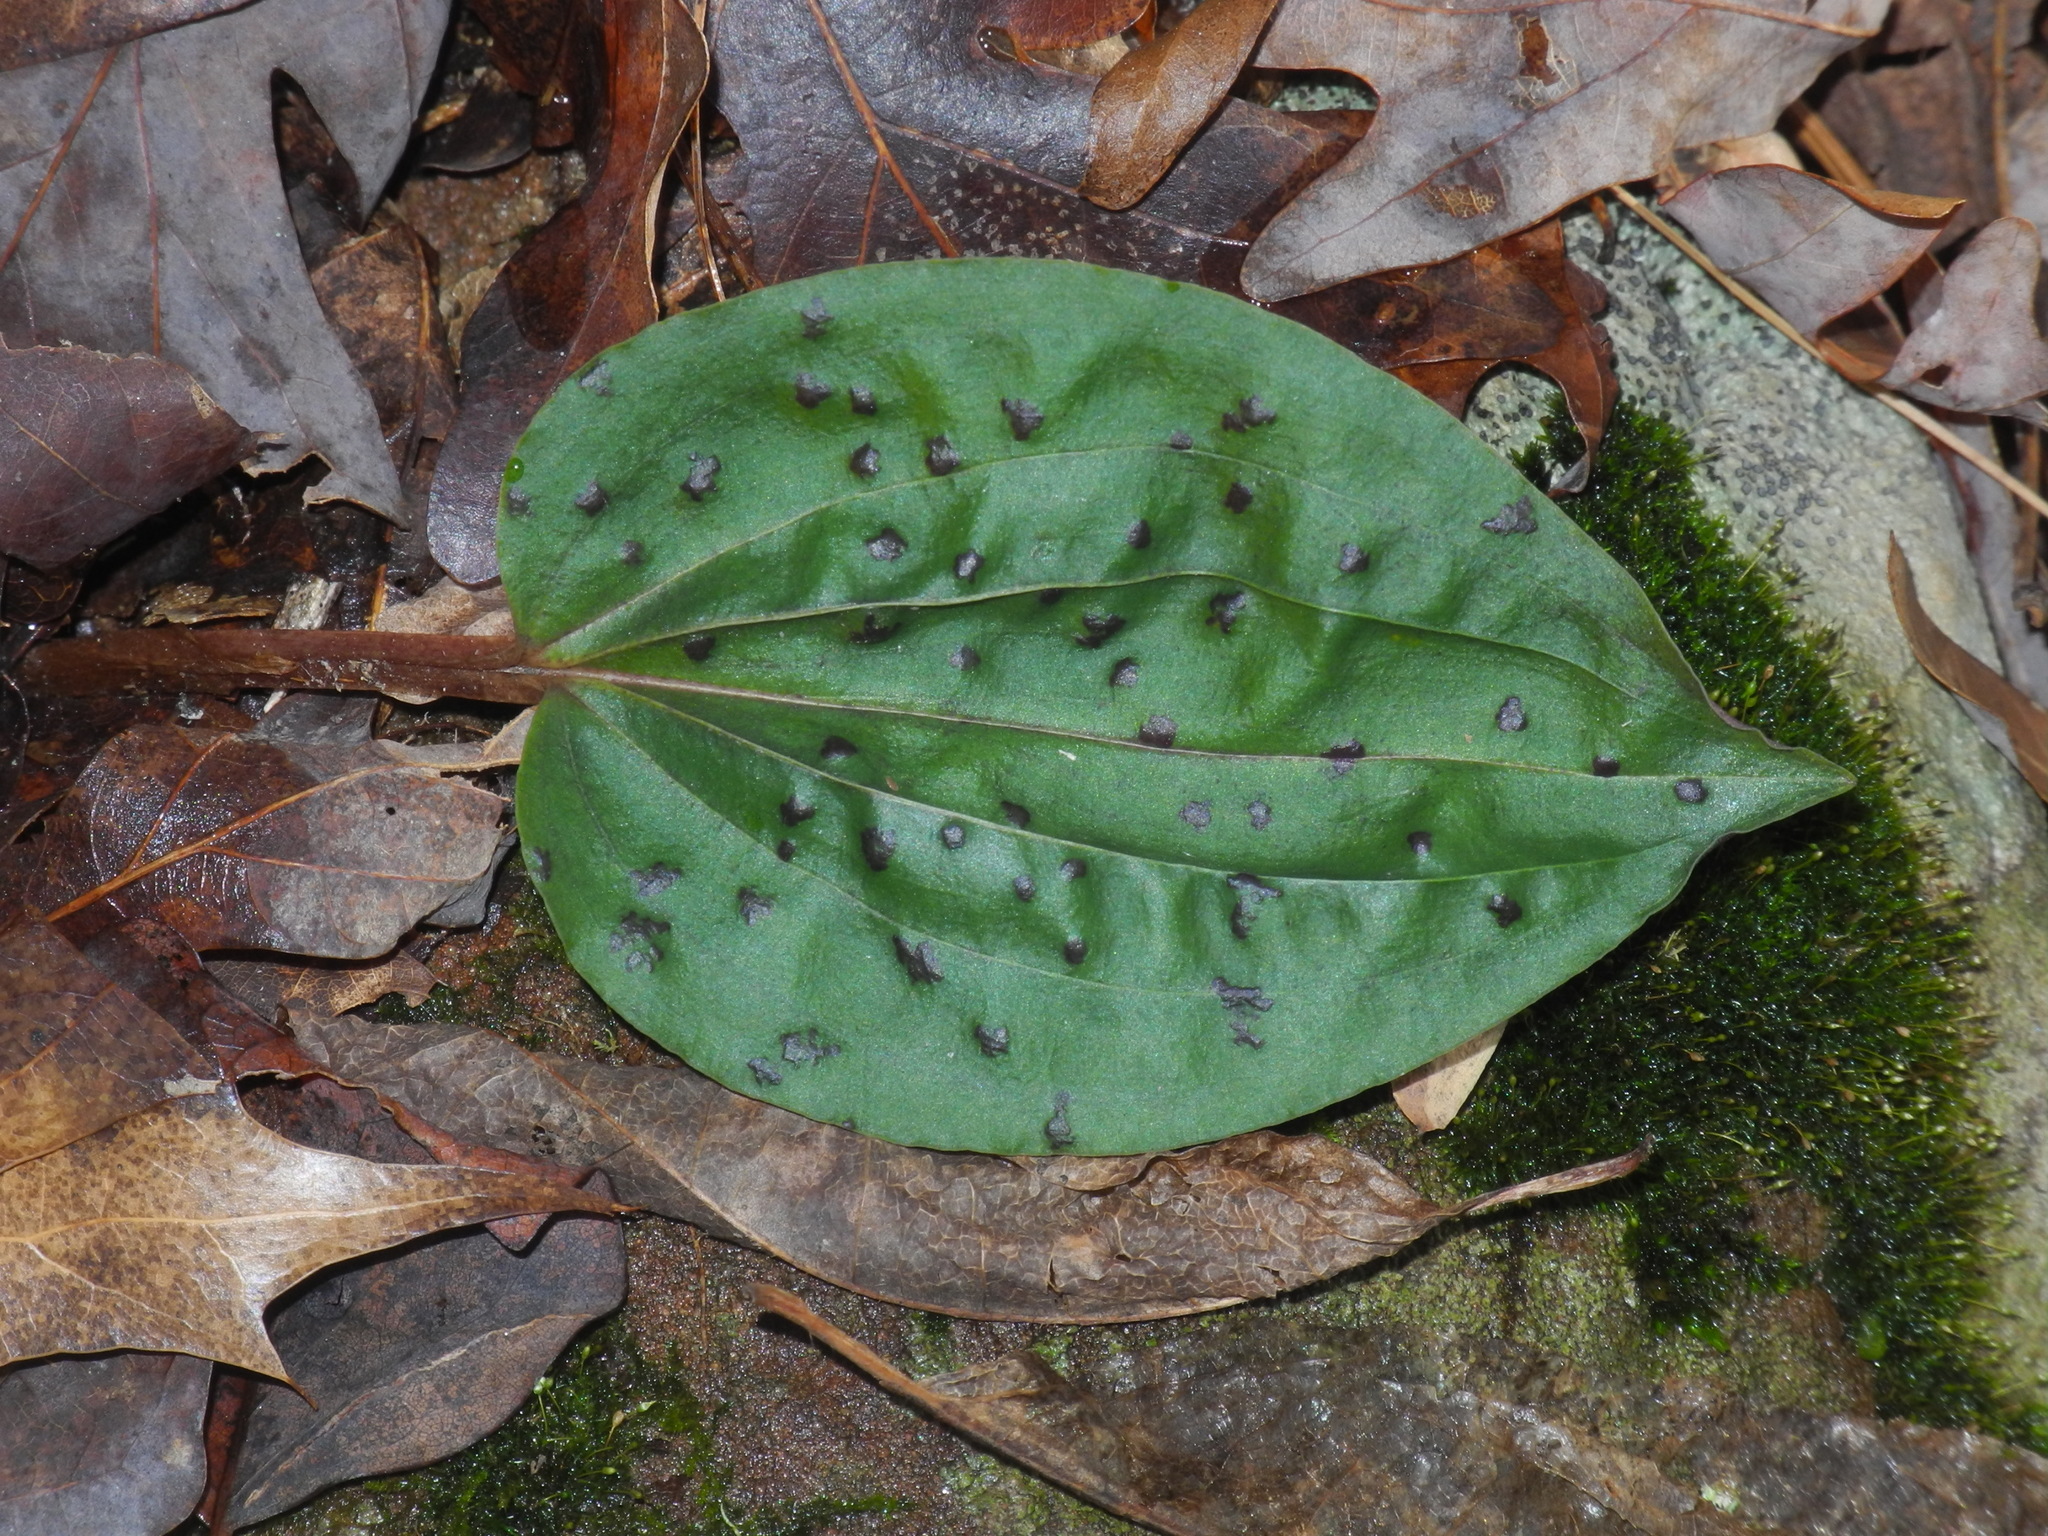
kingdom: Plantae
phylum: Tracheophyta
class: Liliopsida
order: Asparagales
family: Orchidaceae
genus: Tipularia
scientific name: Tipularia discolor
